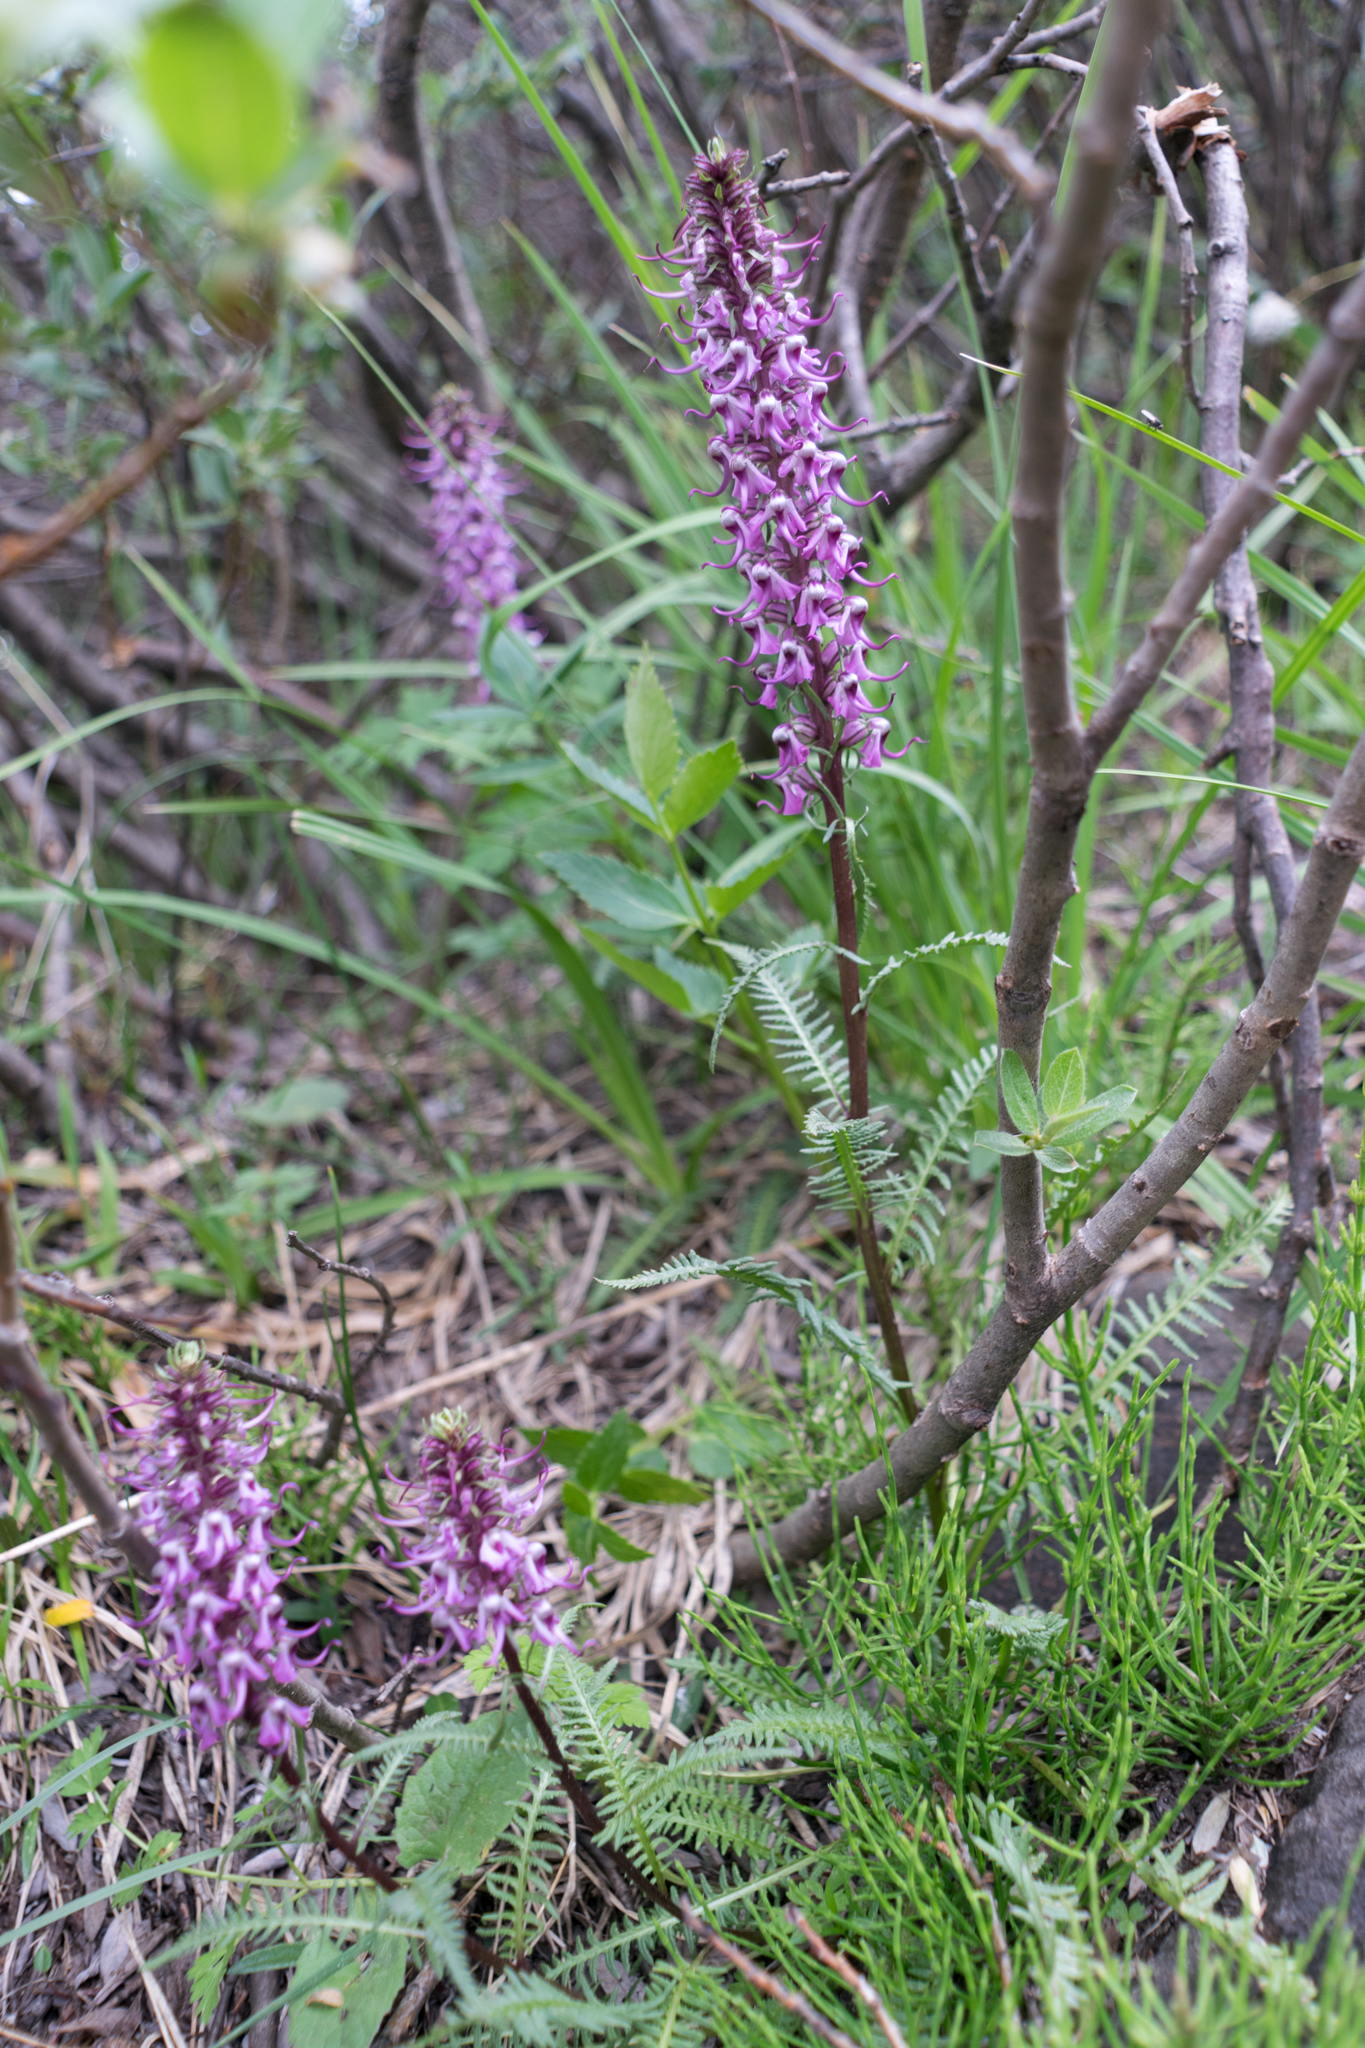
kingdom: Plantae
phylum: Tracheophyta
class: Magnoliopsida
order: Lamiales
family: Orobanchaceae
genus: Pedicularis
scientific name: Pedicularis groenlandica
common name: Elephant's-head
